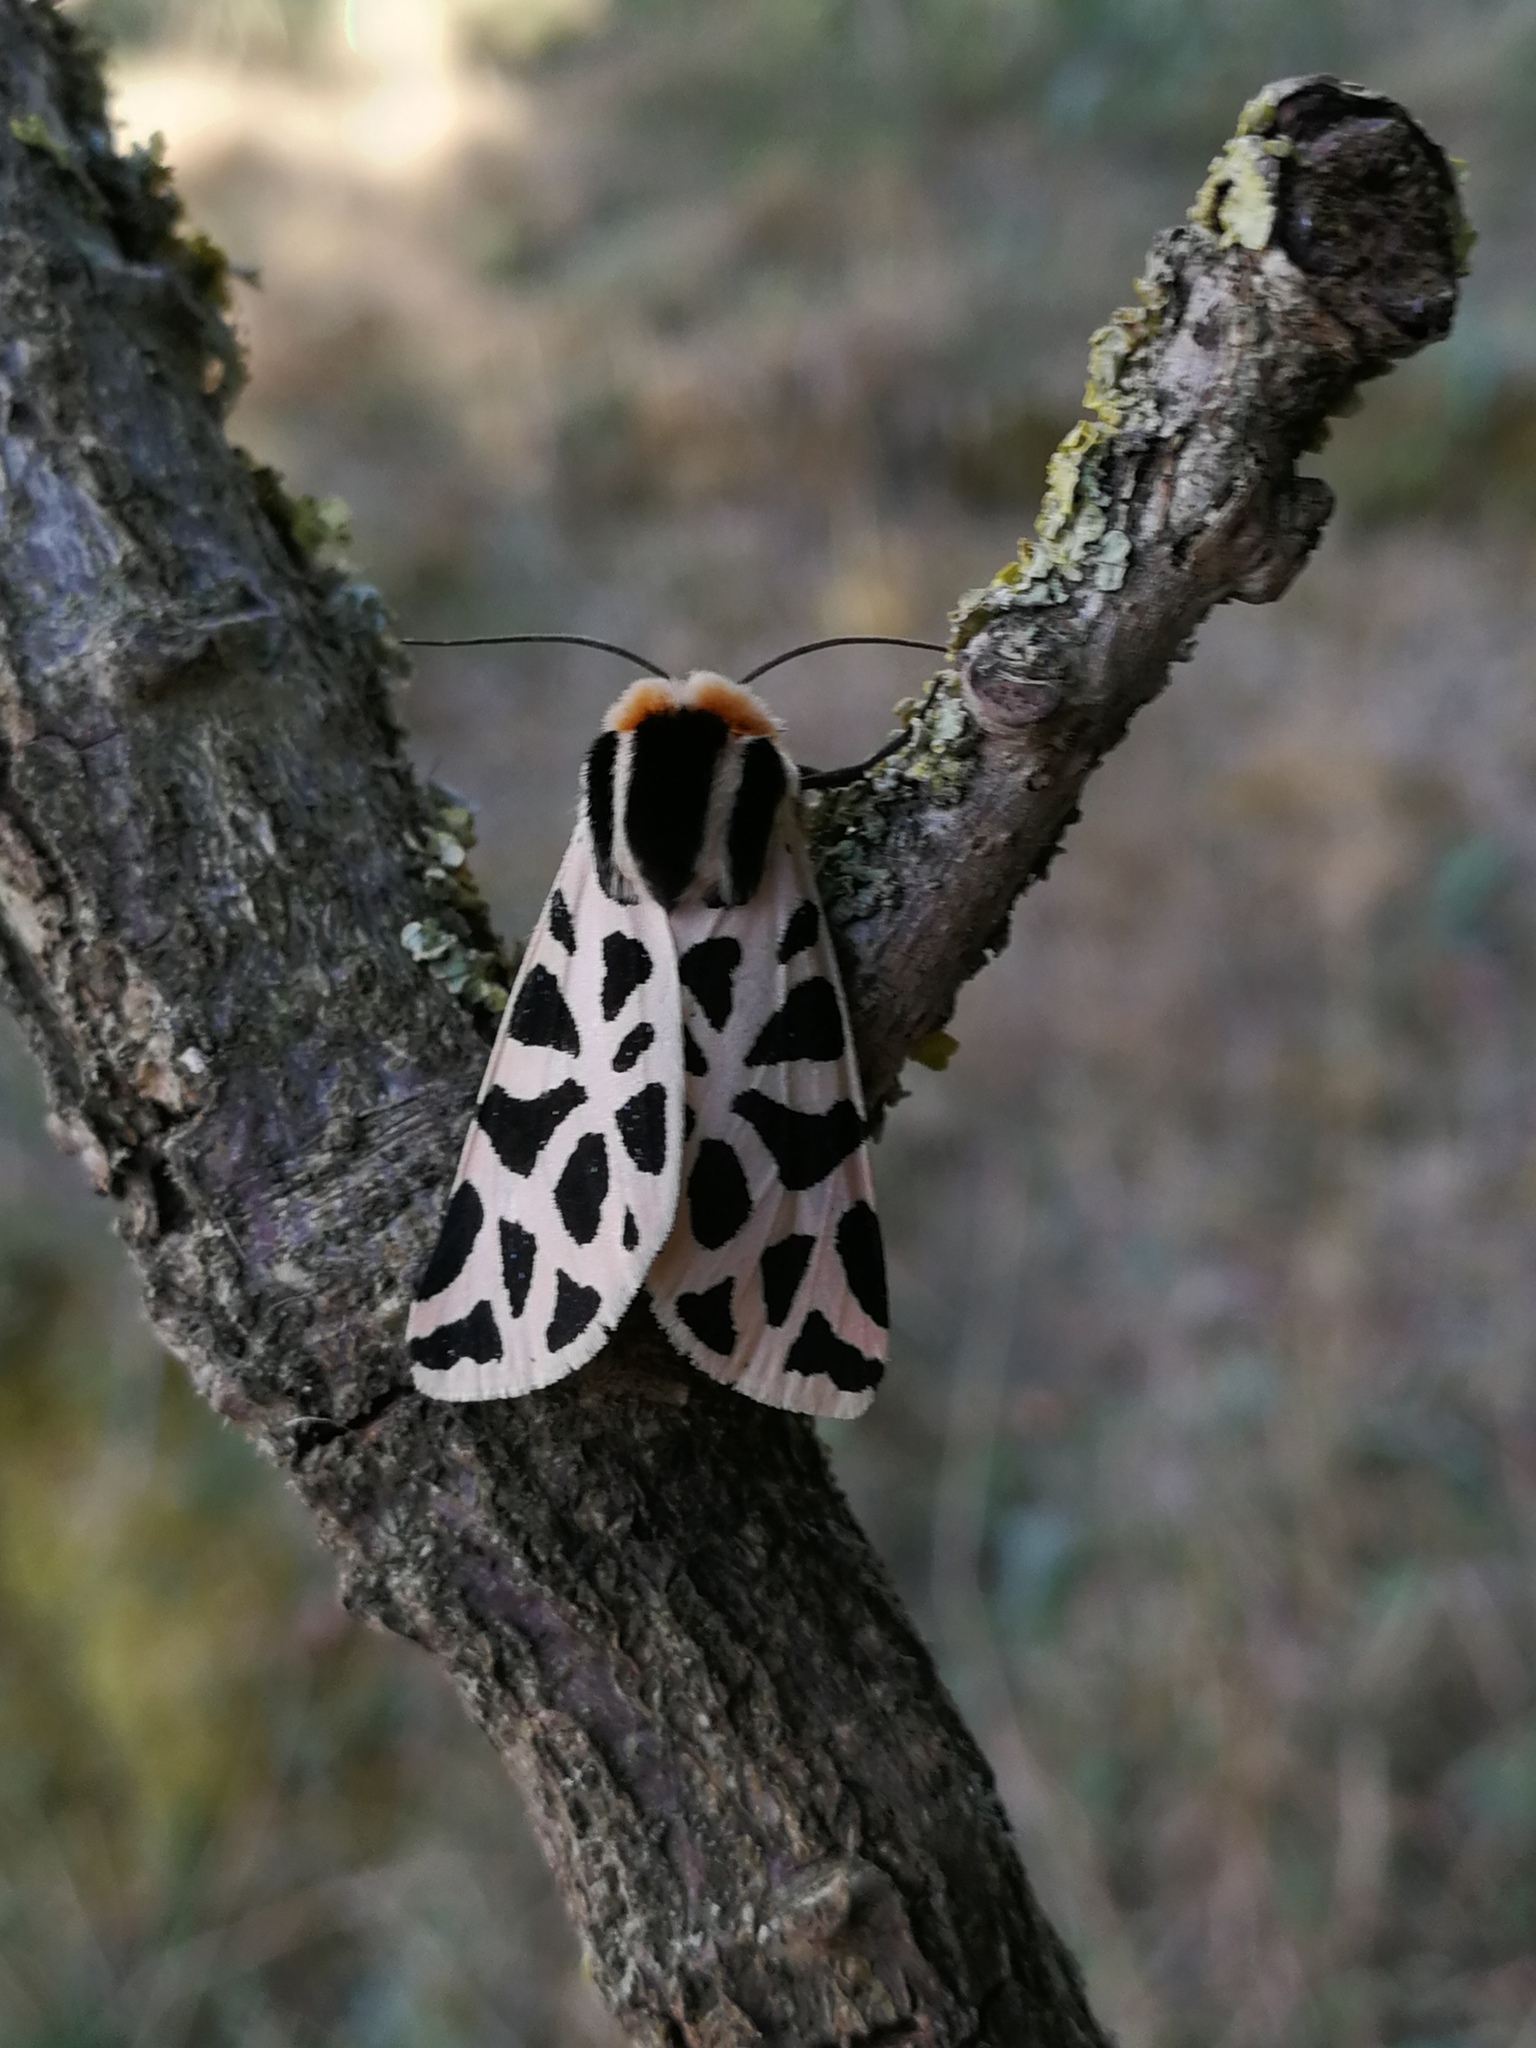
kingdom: Animalia
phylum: Arthropoda
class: Insecta
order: Lepidoptera
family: Erebidae
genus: Cymbalophora
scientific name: Cymbalophora pudica
